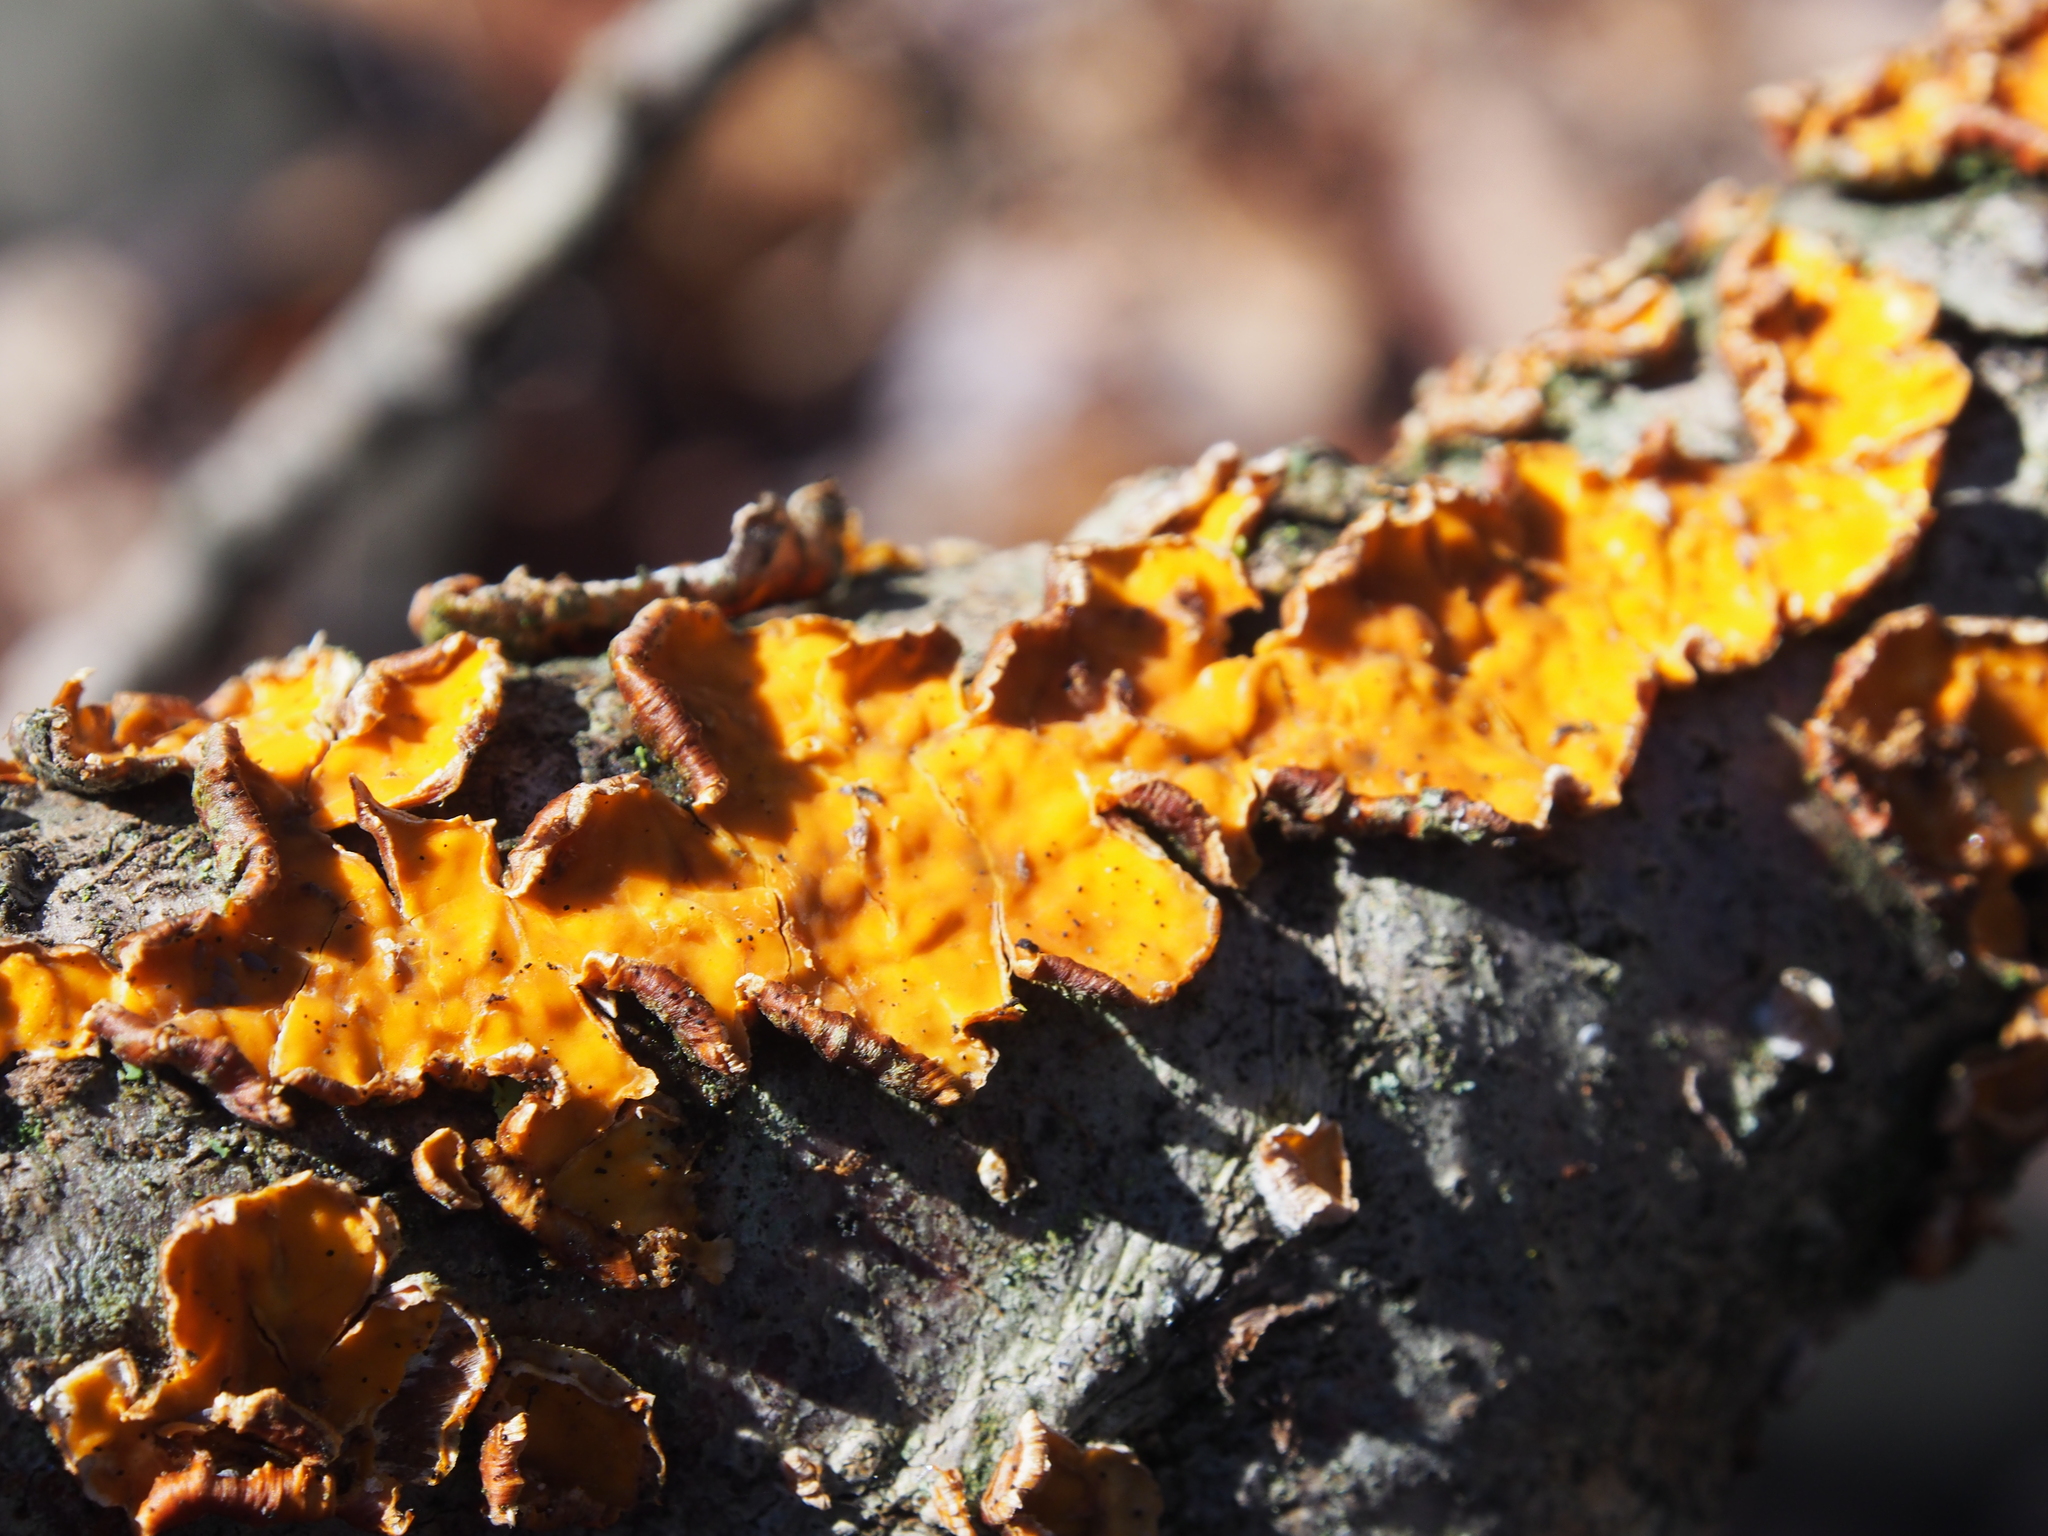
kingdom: Fungi
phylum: Basidiomycota
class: Agaricomycetes
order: Russulales
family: Stereaceae
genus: Stereum
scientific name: Stereum complicatum
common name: Crowded parchment
